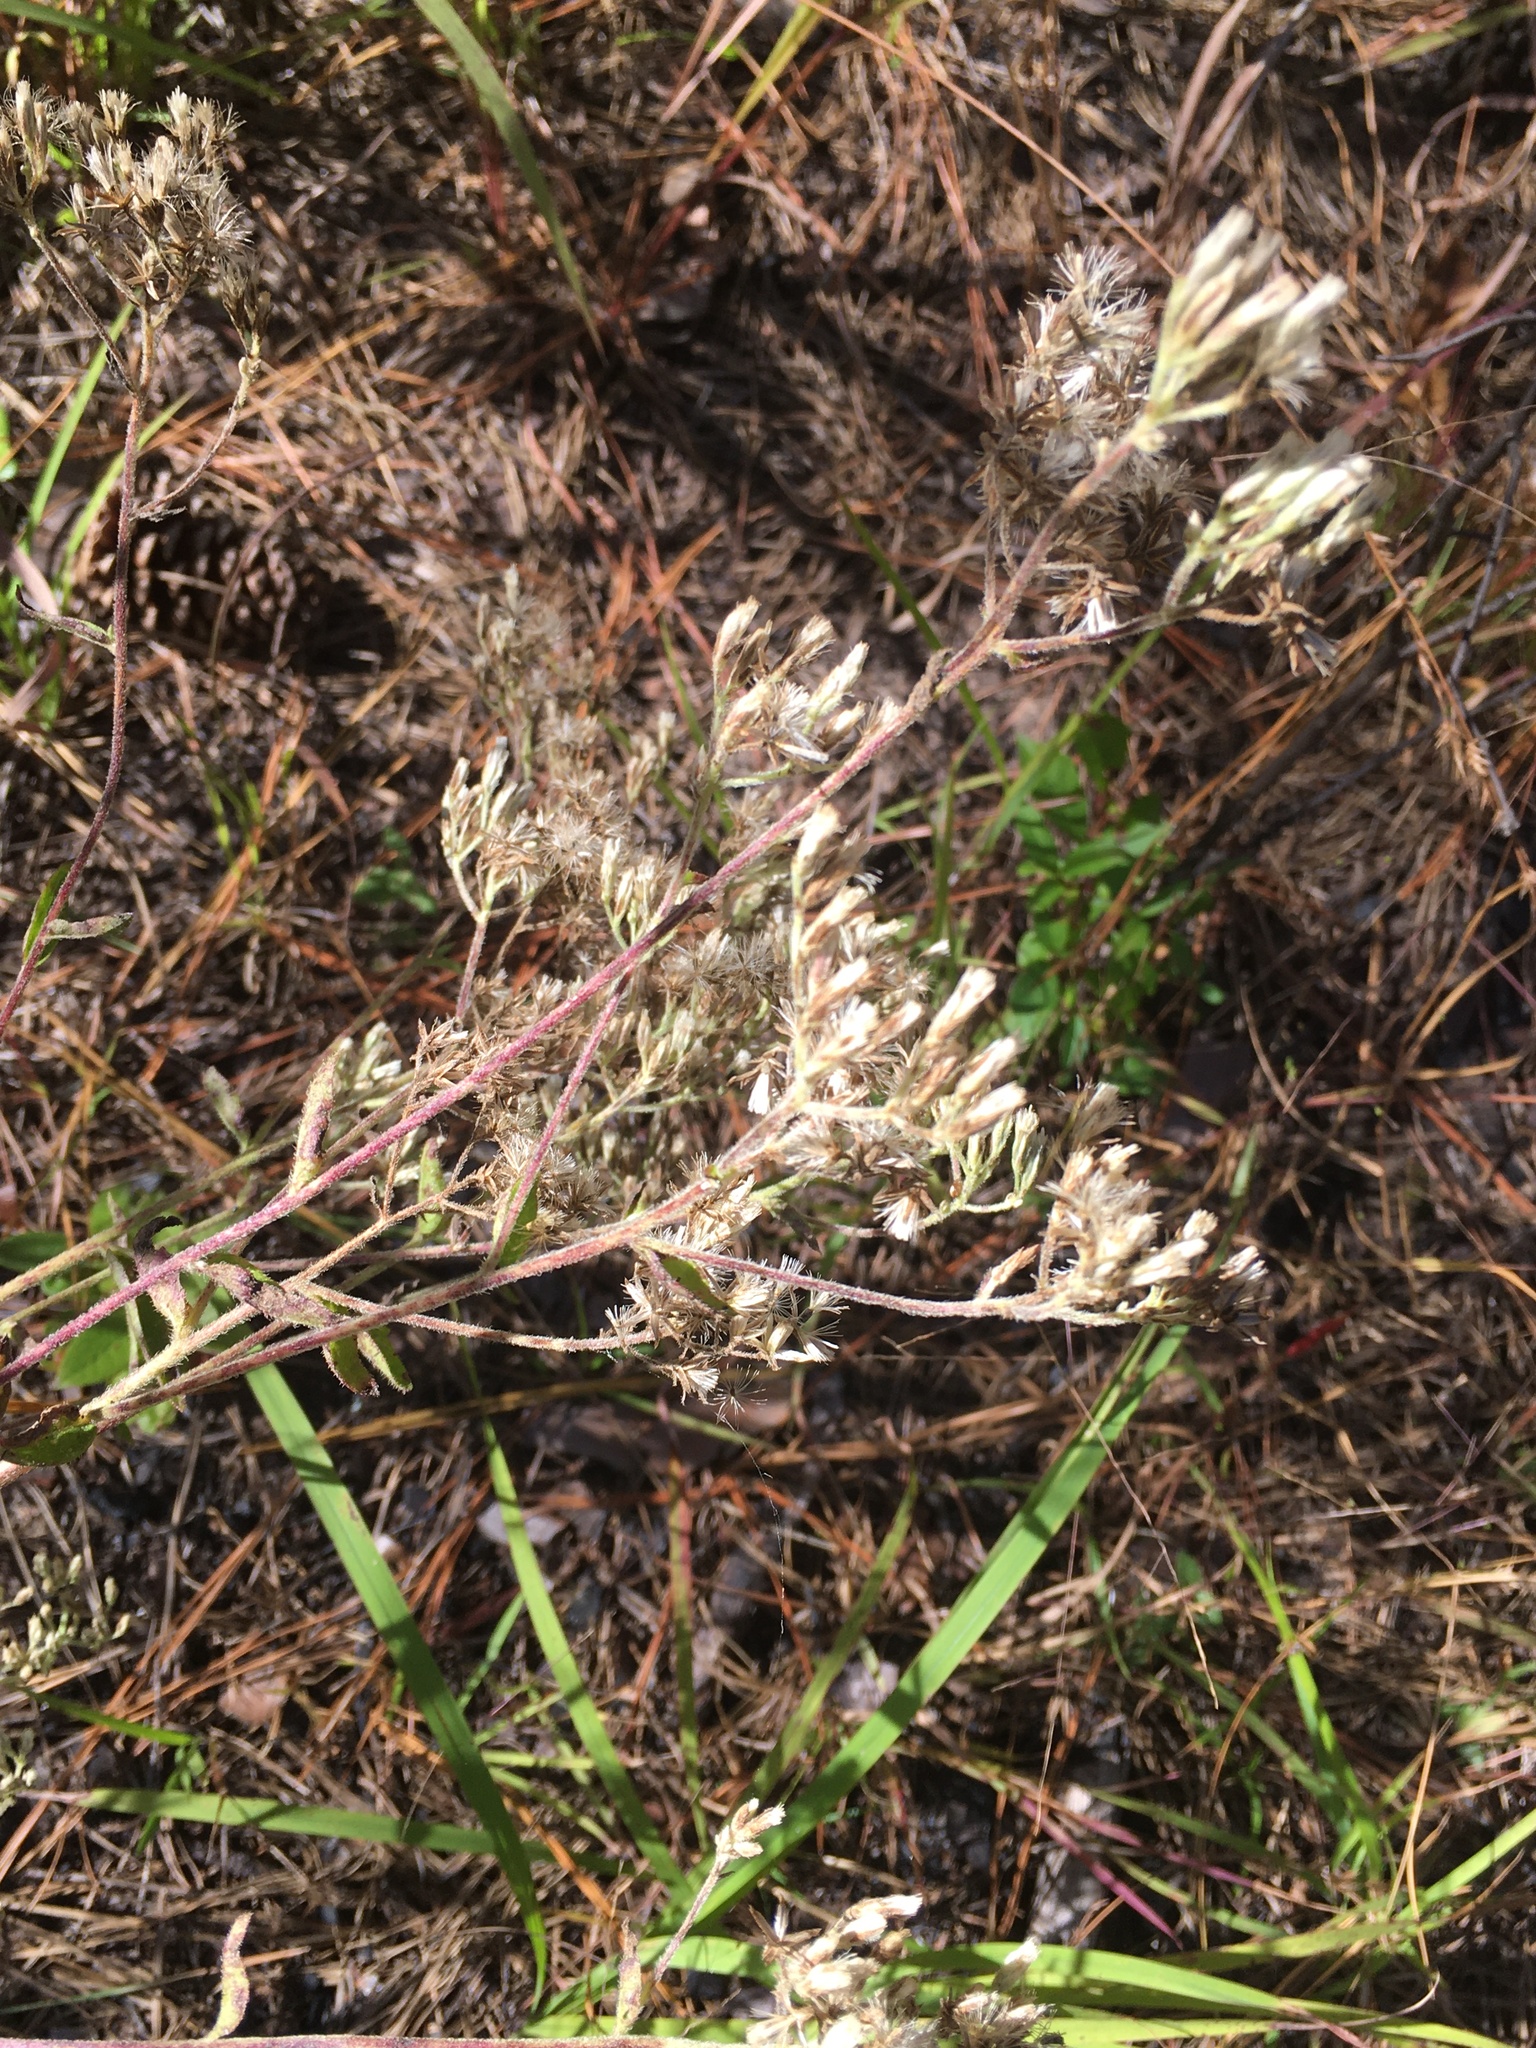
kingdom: Plantae
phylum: Tracheophyta
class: Magnoliopsida
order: Asterales
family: Asteraceae
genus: Eupatorium
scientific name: Eupatorium pilosum
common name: Rough boneset
